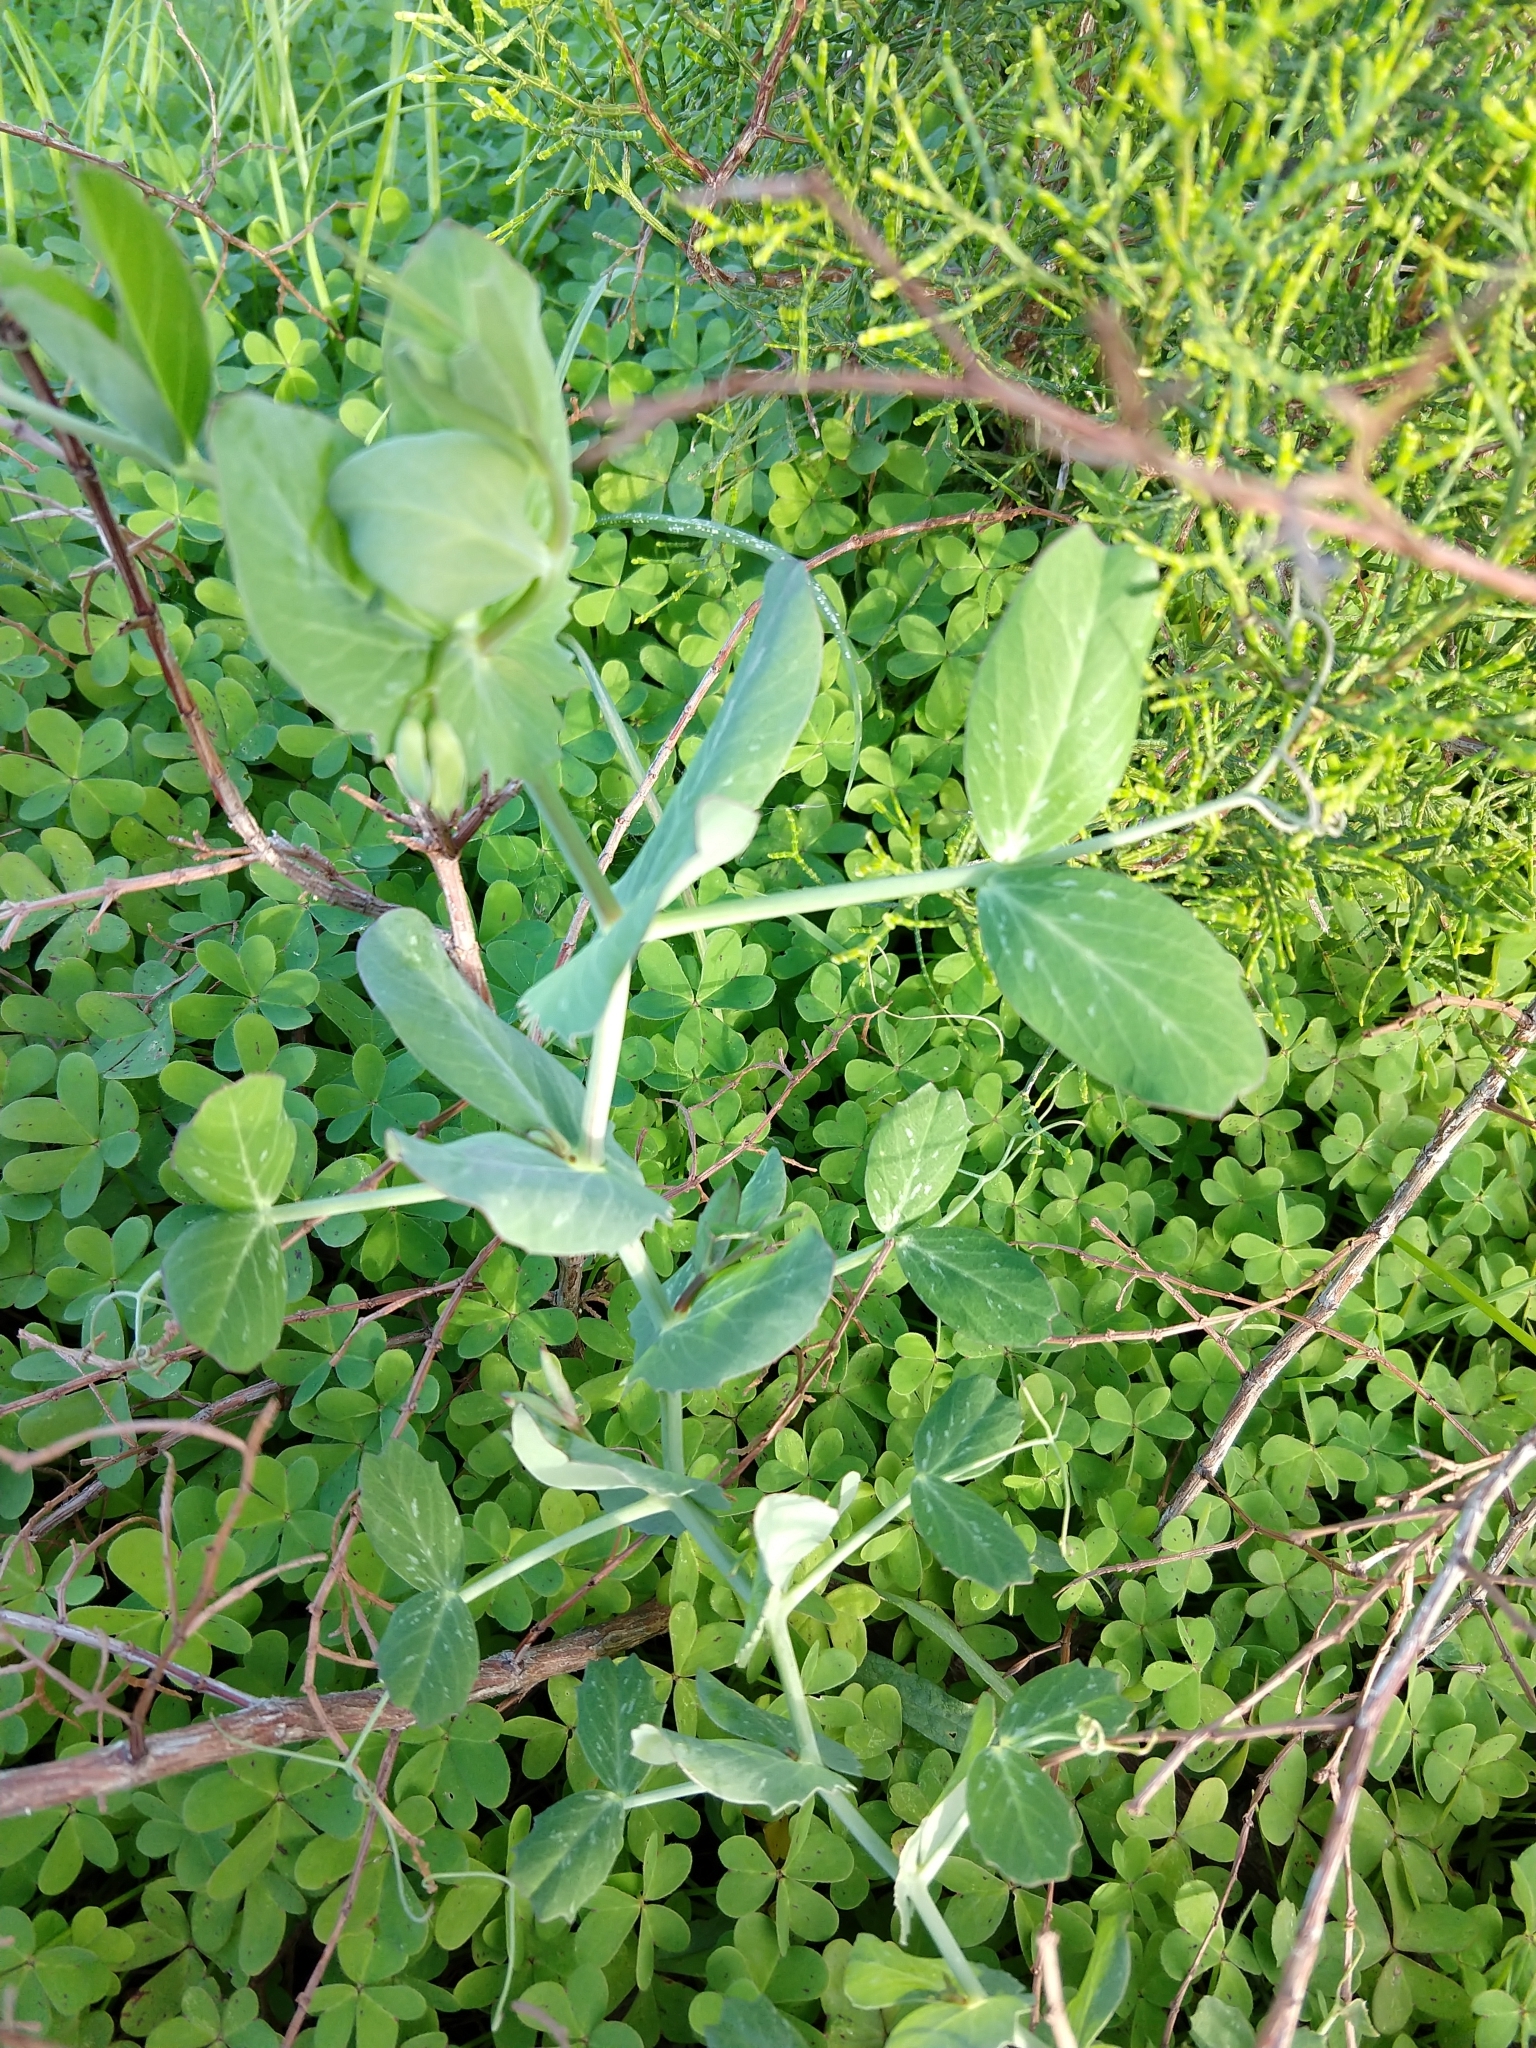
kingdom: Plantae
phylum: Tracheophyta
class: Magnoliopsida
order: Fabales
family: Fabaceae
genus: Lathyrus
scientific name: Lathyrus oleraceus
